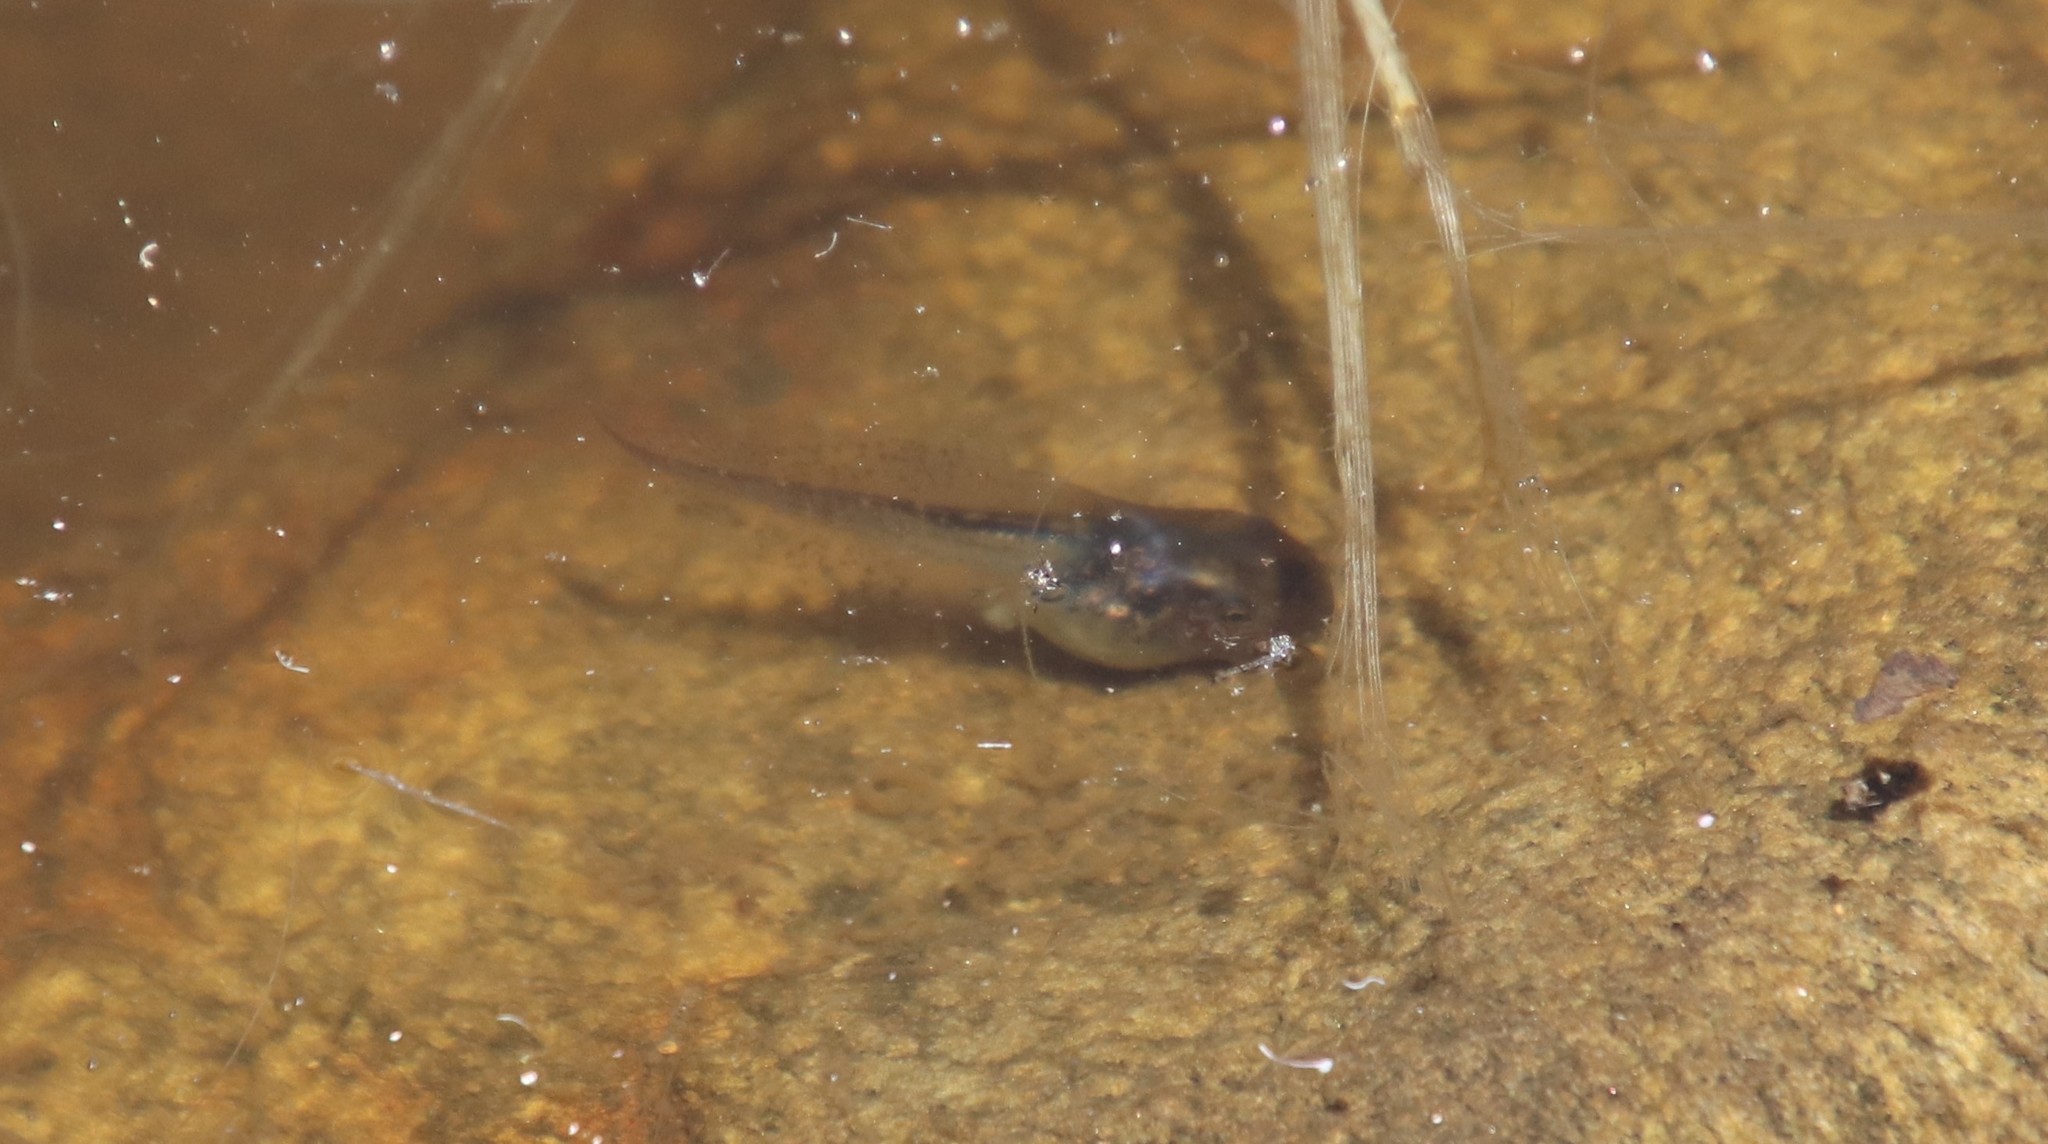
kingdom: Animalia
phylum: Chordata
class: Amphibia
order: Anura
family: Hylidae
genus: Pseudacris
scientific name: Pseudacris regilla
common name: Pacific chorus frog
